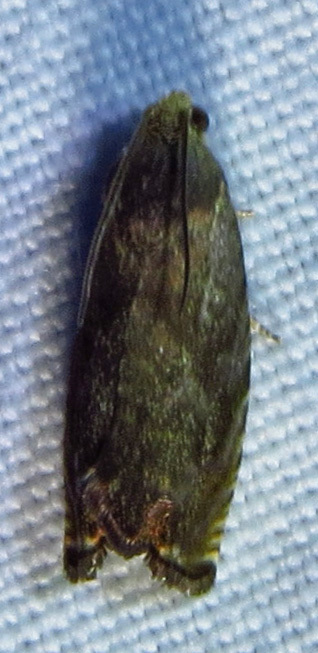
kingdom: Animalia
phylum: Arthropoda
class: Insecta
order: Lepidoptera
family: Tortricidae
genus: Cydia
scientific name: Cydia caryana
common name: Hickory shuckworm moth
